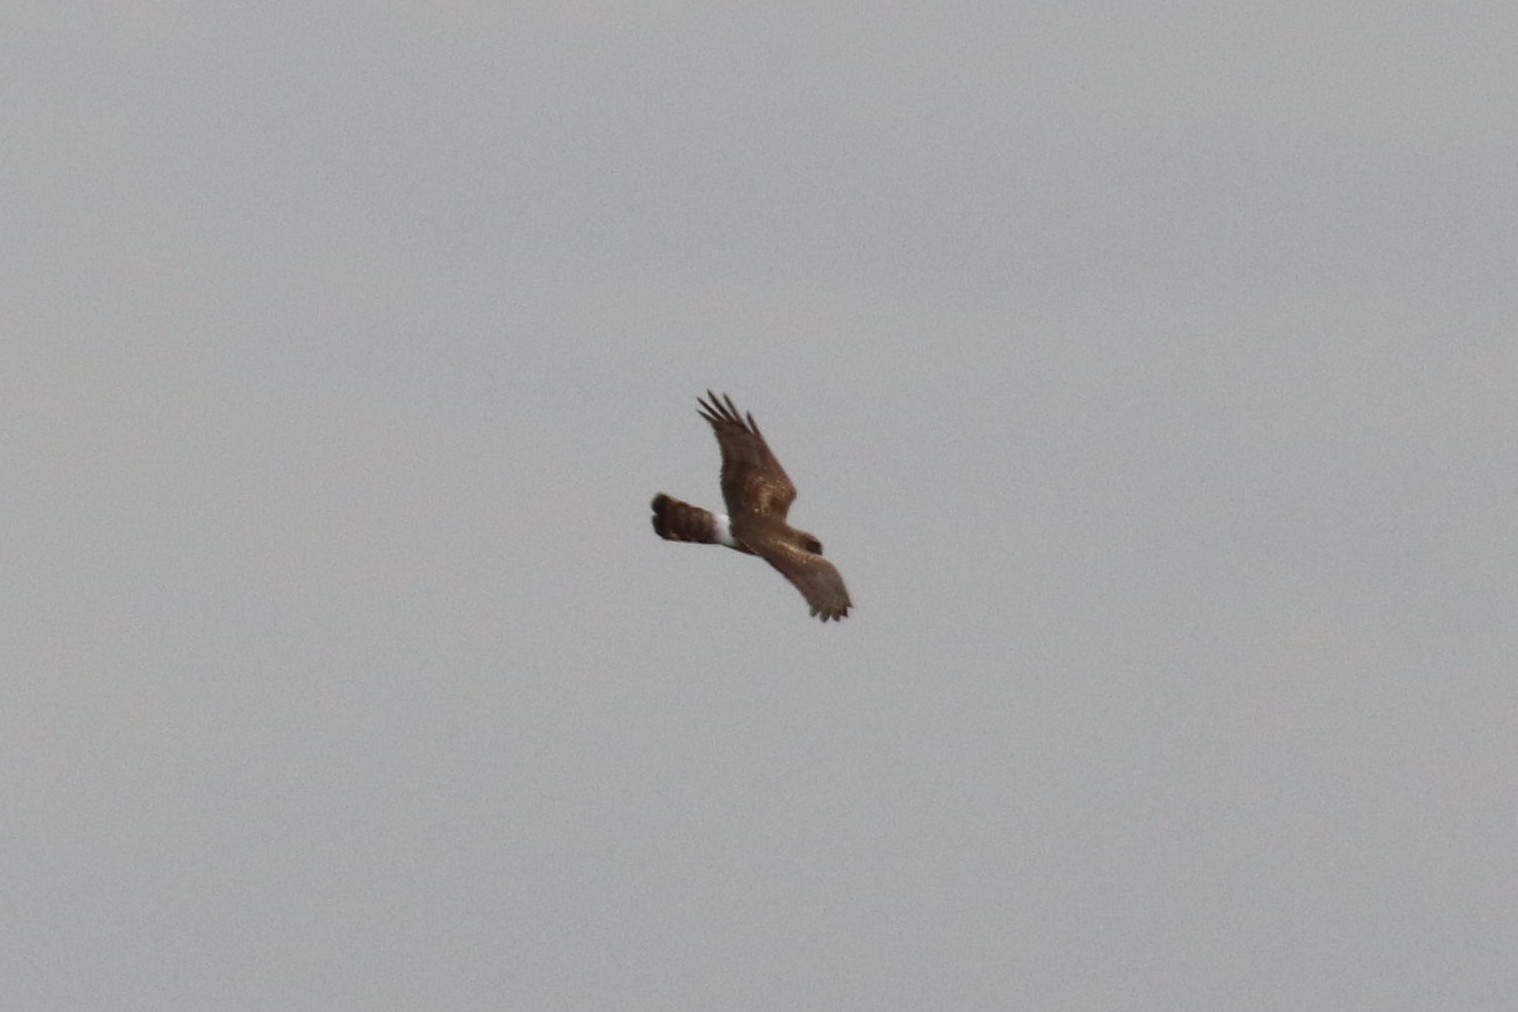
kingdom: Animalia
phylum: Chordata
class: Aves
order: Accipitriformes
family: Accipitridae
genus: Circus
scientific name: Circus cyaneus
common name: Hen harrier
